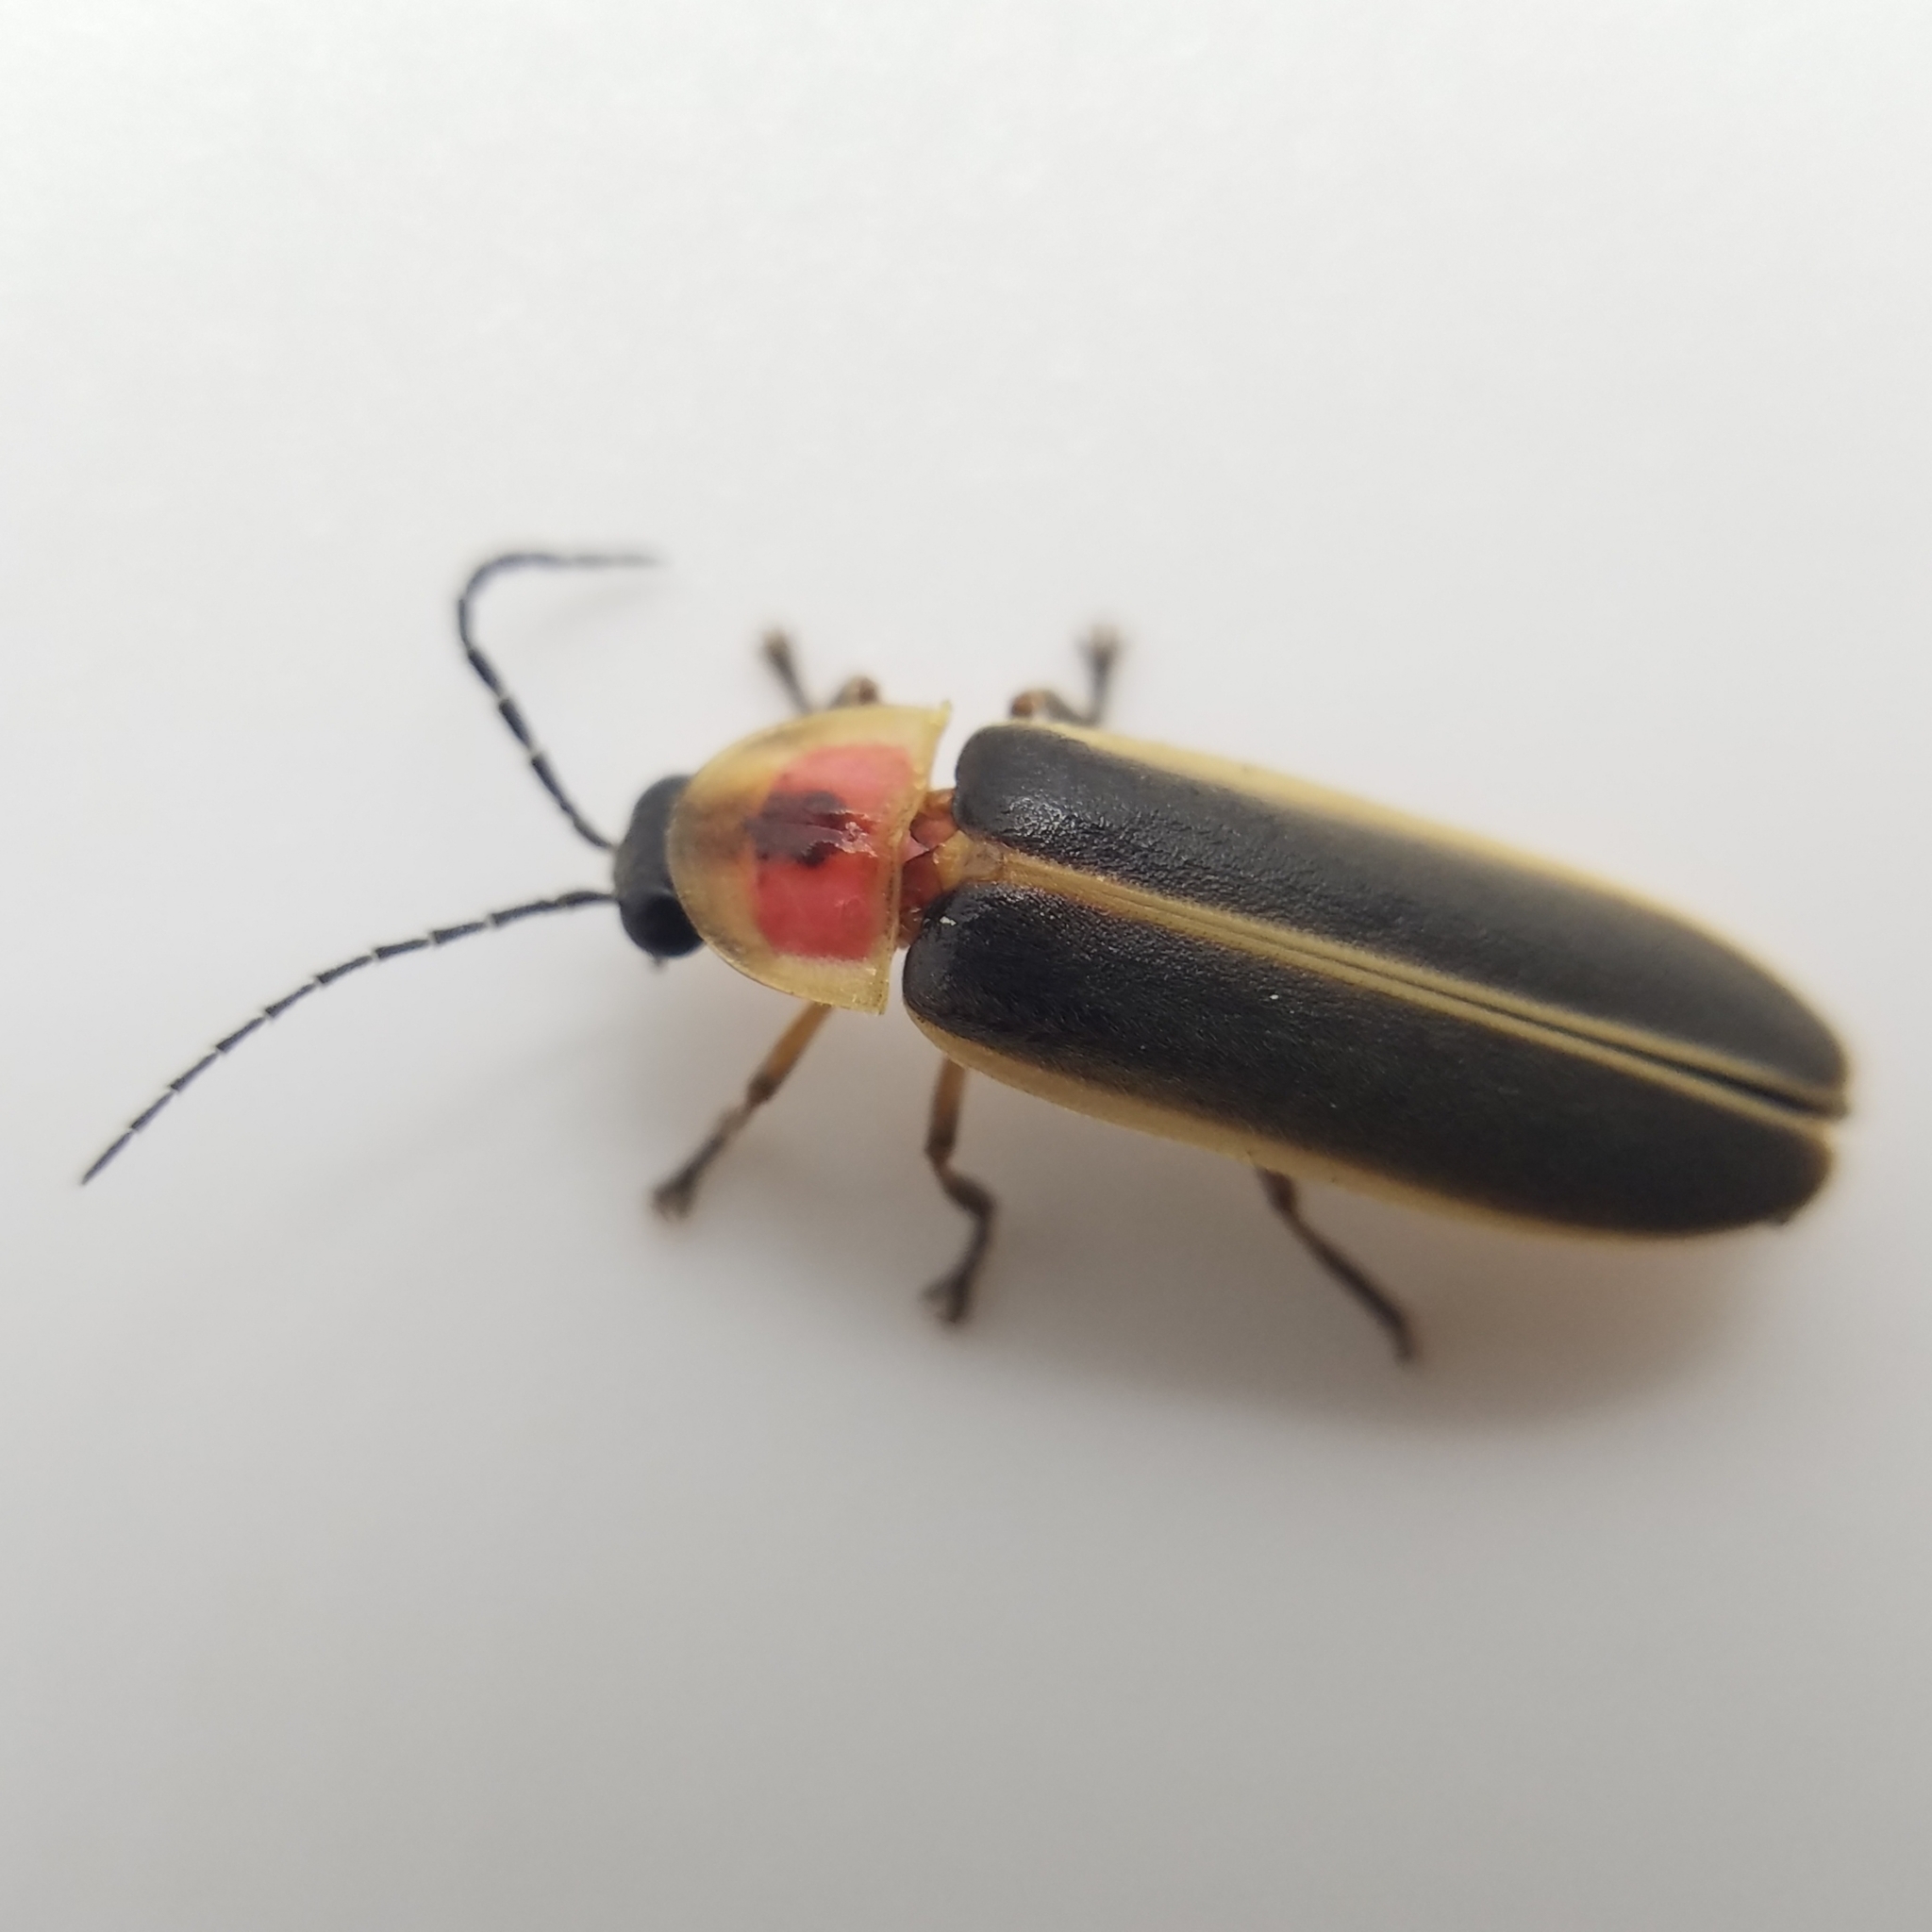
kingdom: Animalia
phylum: Arthropoda
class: Insecta
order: Coleoptera
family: Lampyridae
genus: Photinus
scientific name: Photinus pyralis
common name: Big dipper firefly
